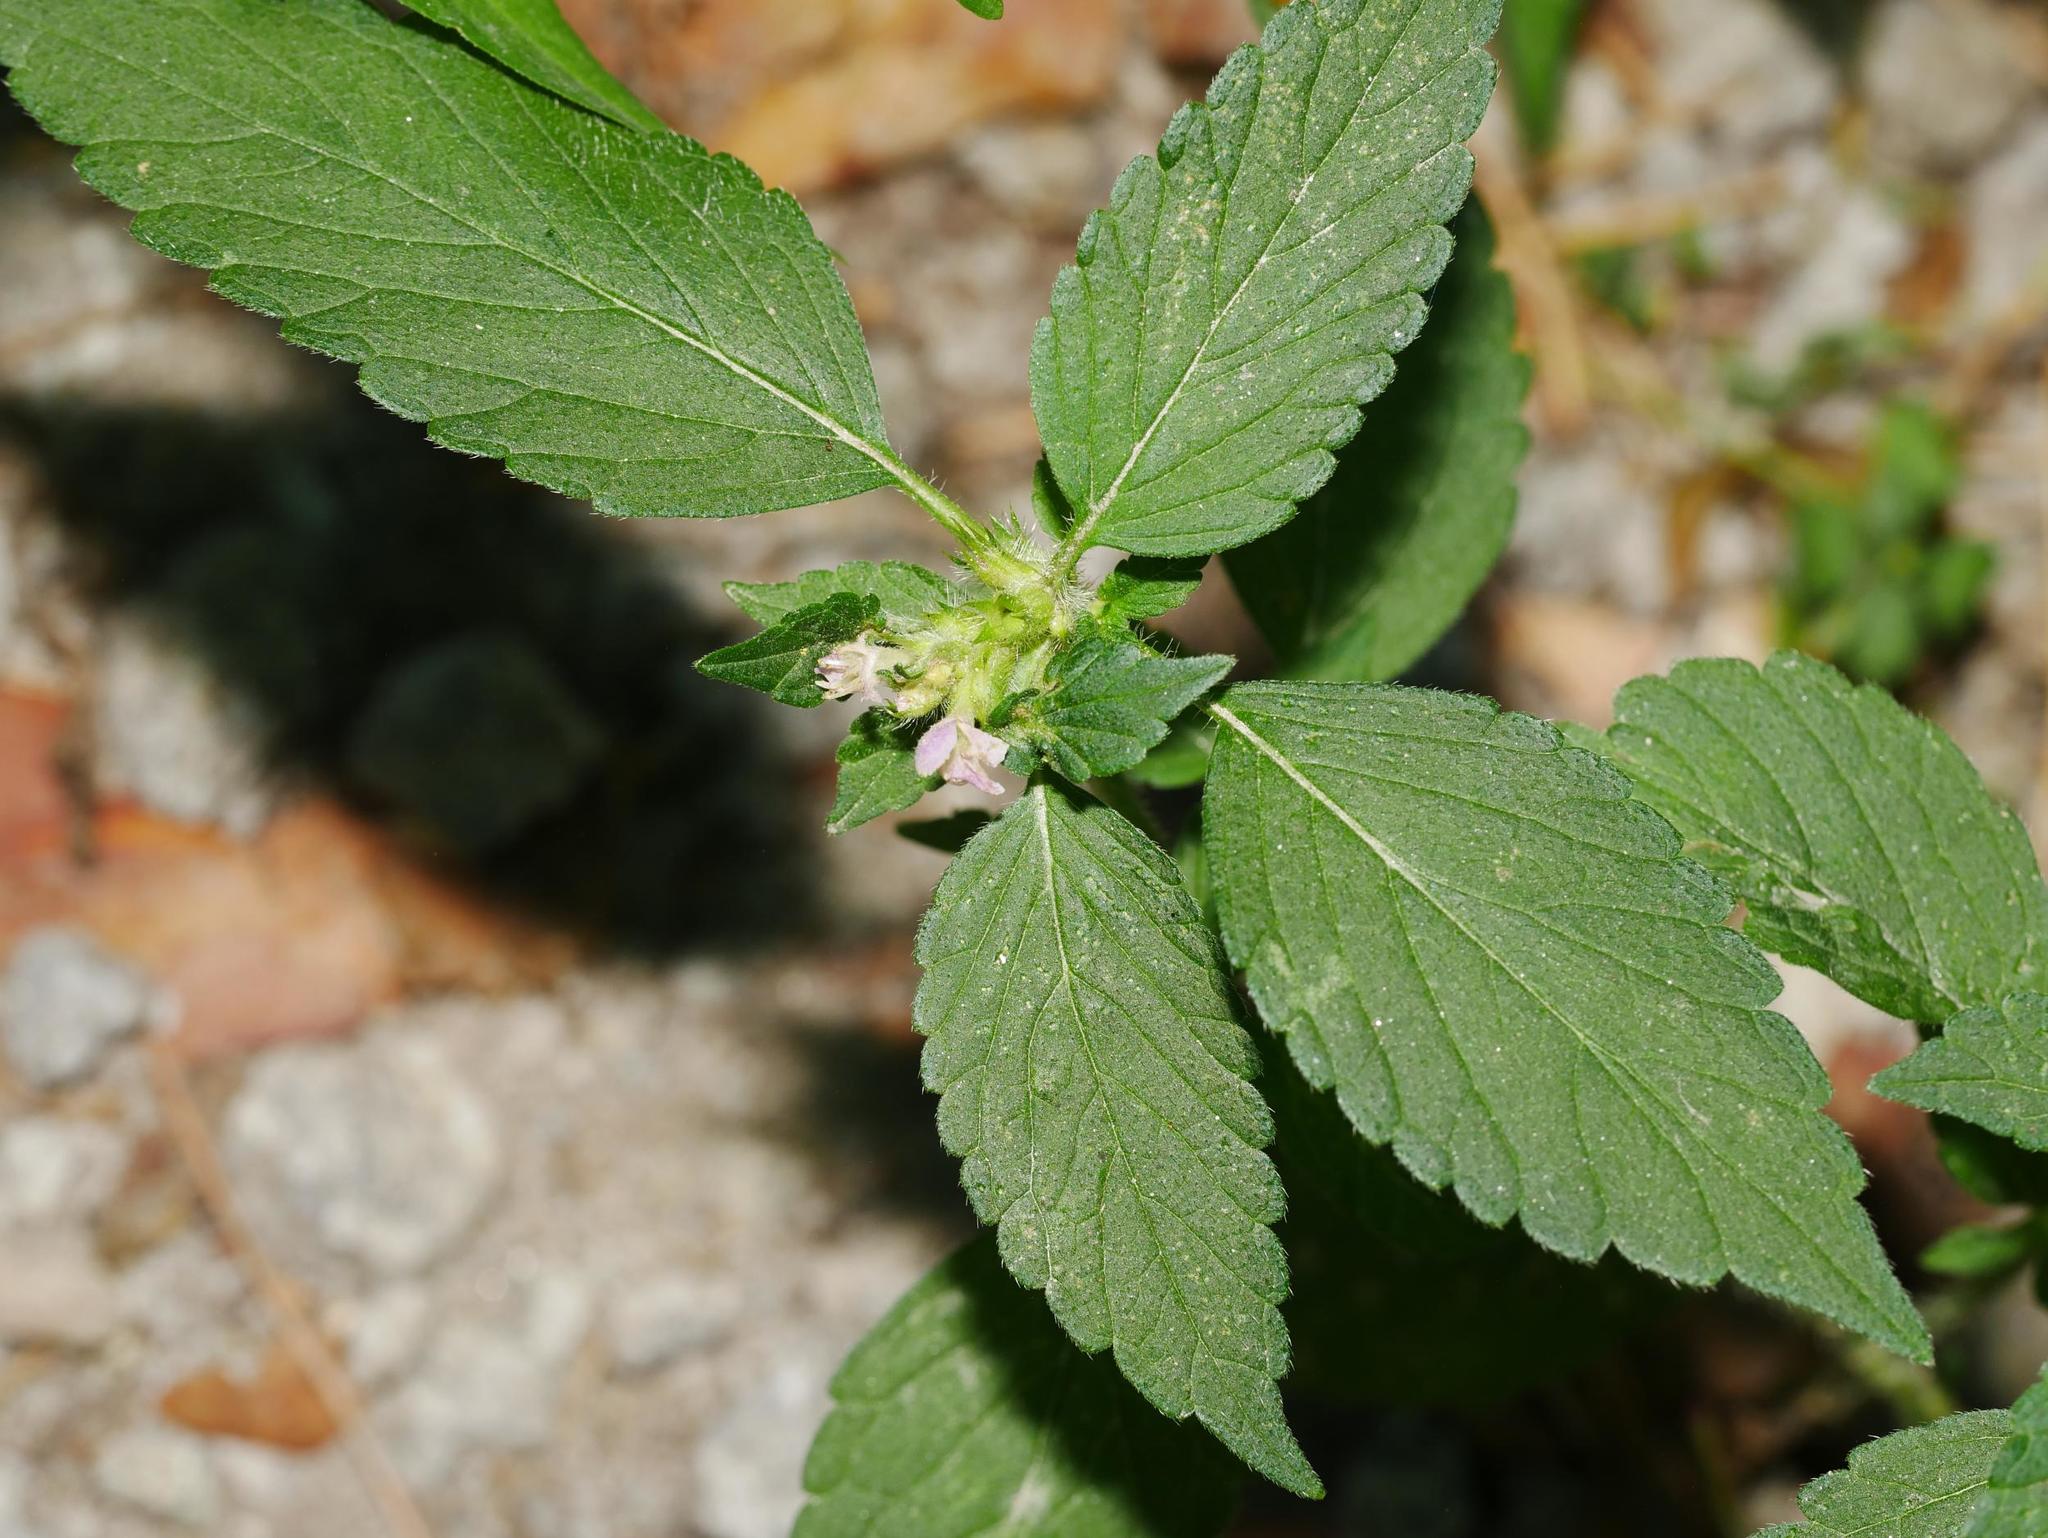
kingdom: Plantae
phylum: Tracheophyta
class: Magnoliopsida
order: Lamiales
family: Lamiaceae
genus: Galeopsis
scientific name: Galeopsis tetrahit
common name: Common hemp-nettle
